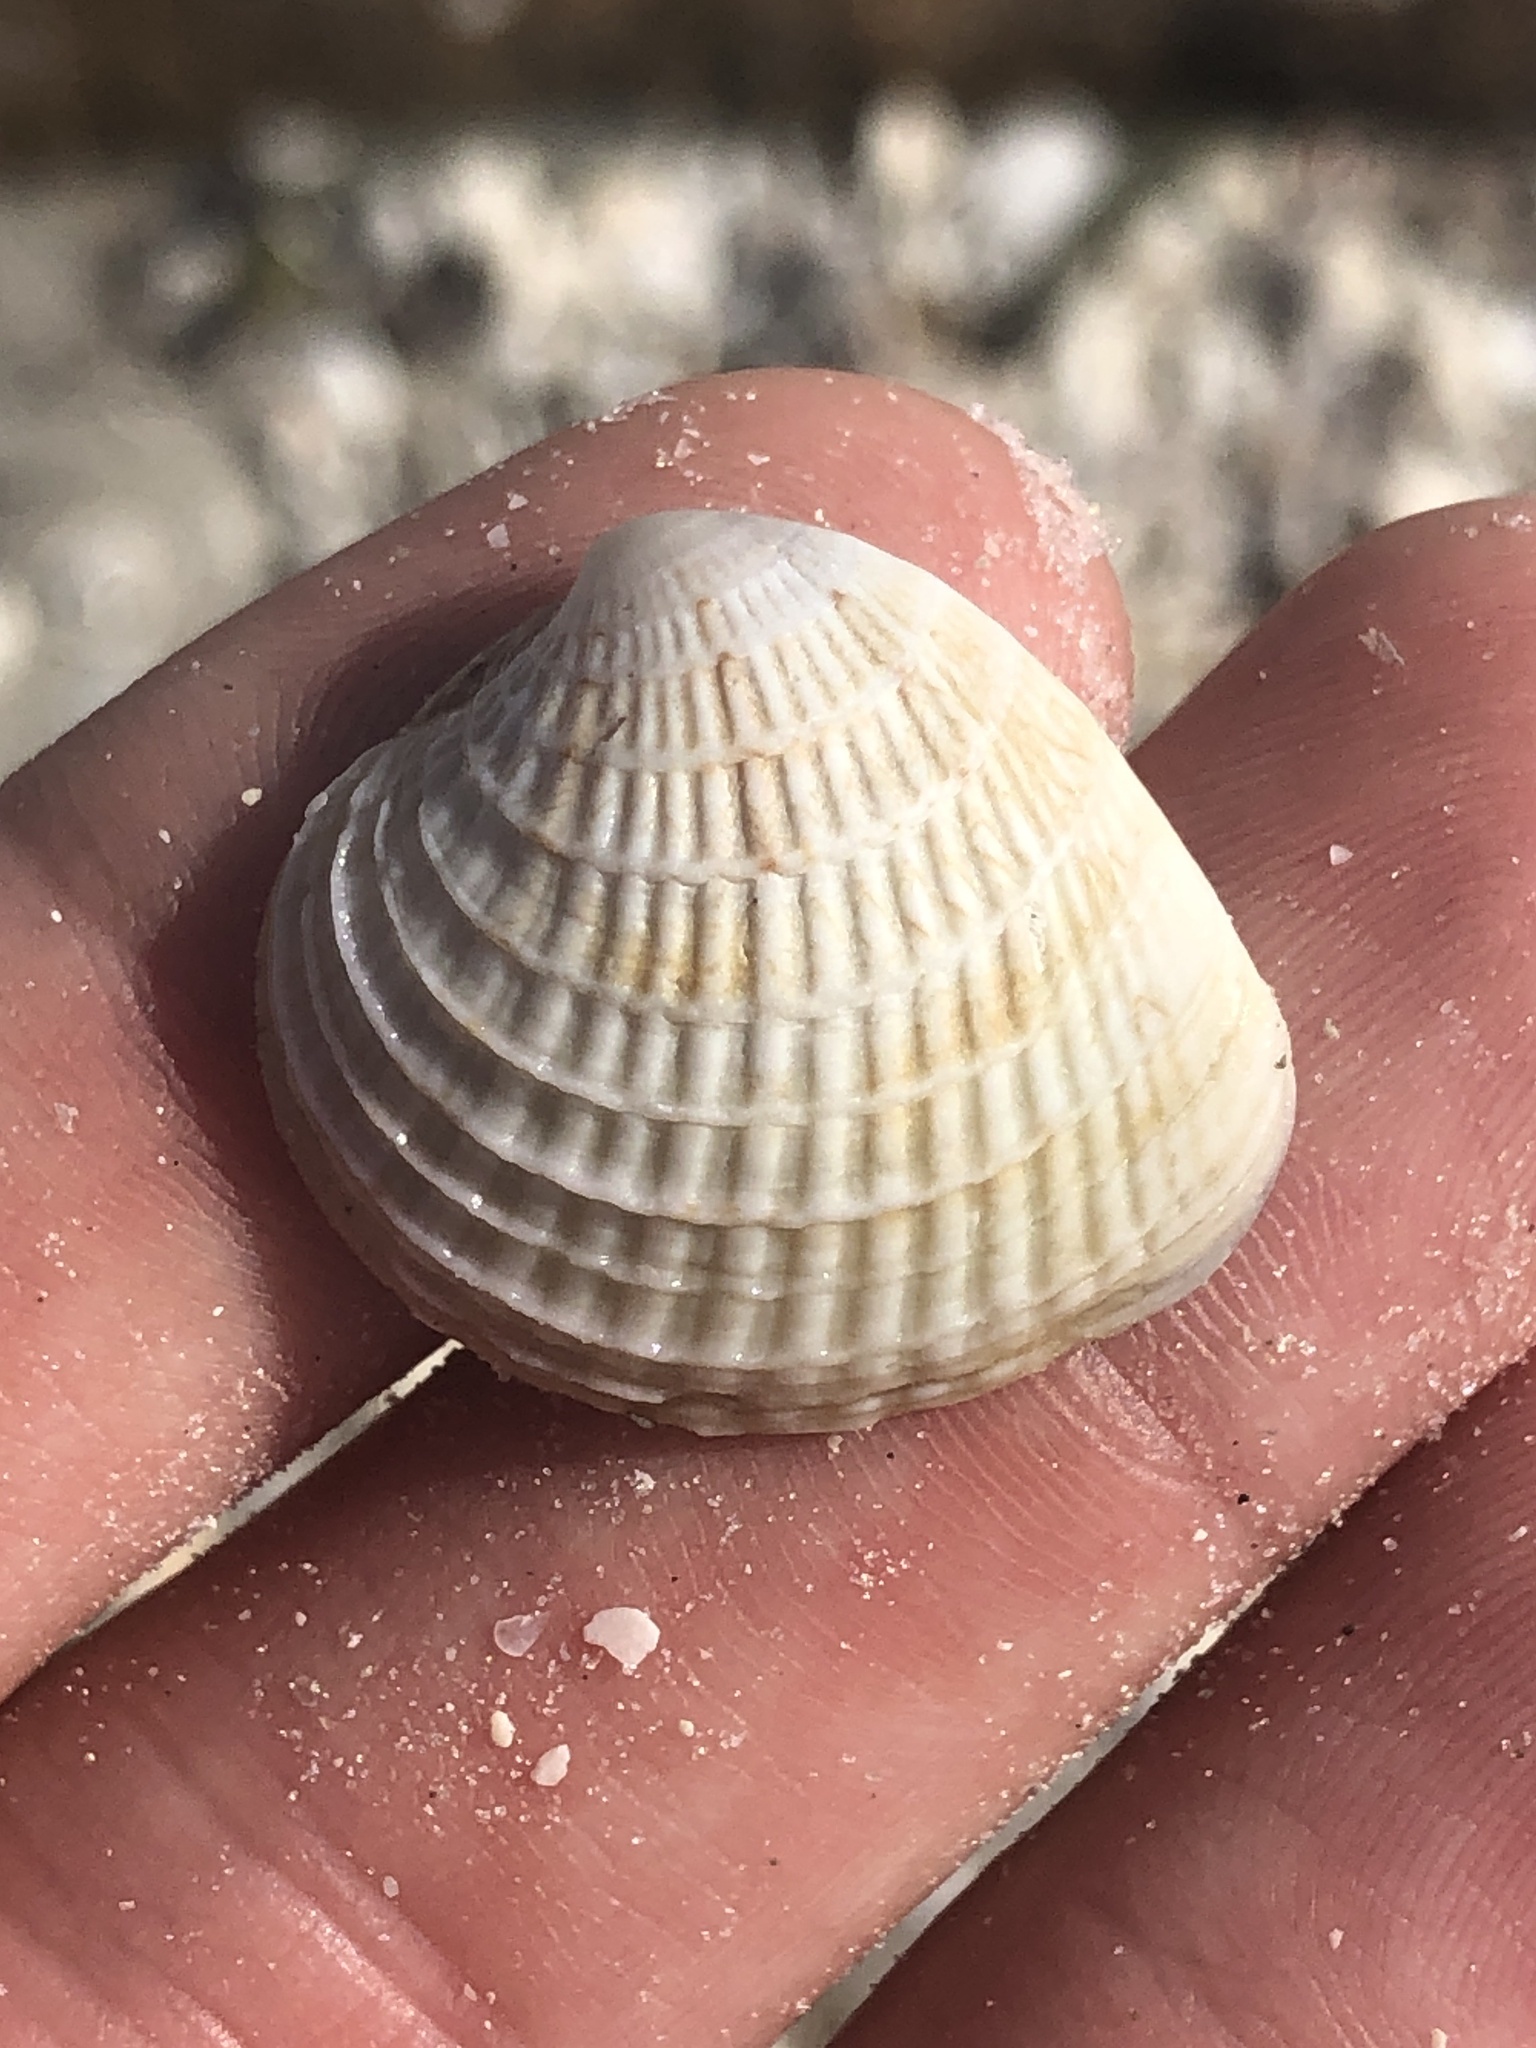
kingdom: Animalia
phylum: Mollusca
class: Bivalvia
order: Venerida
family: Veneridae
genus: Chione
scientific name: Chione elevata
